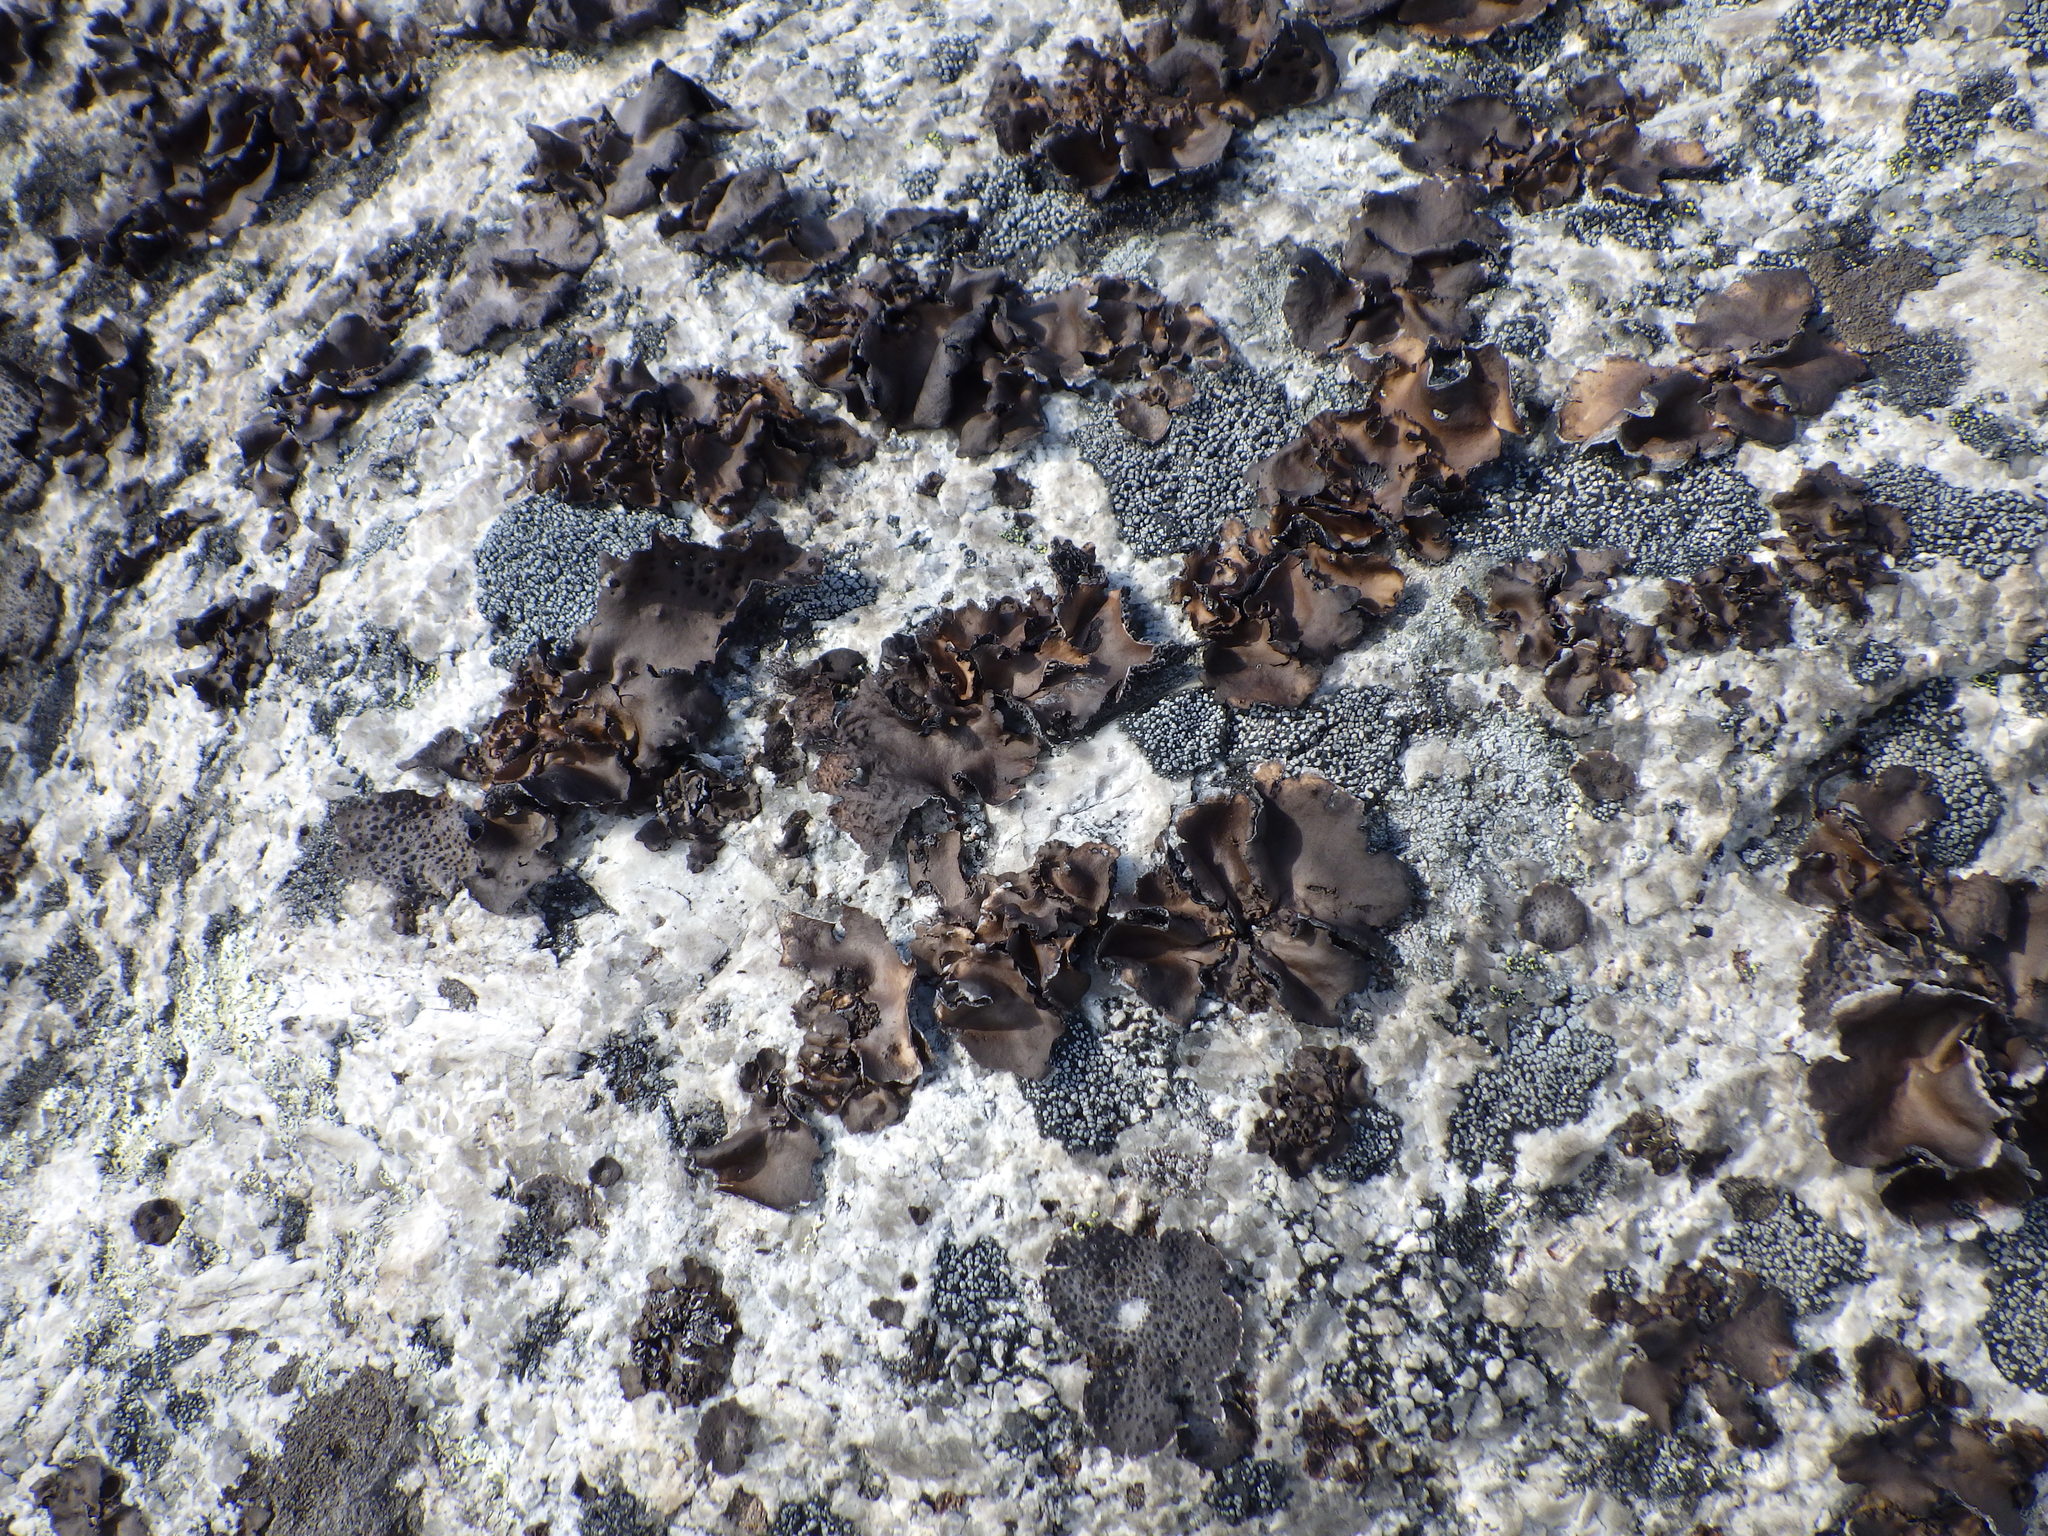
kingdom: Fungi
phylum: Ascomycota
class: Lecanoromycetes
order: Umbilicariales
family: Umbilicariaceae
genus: Umbilicaria
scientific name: Umbilicaria mammulata
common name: Smooth rock tripe
